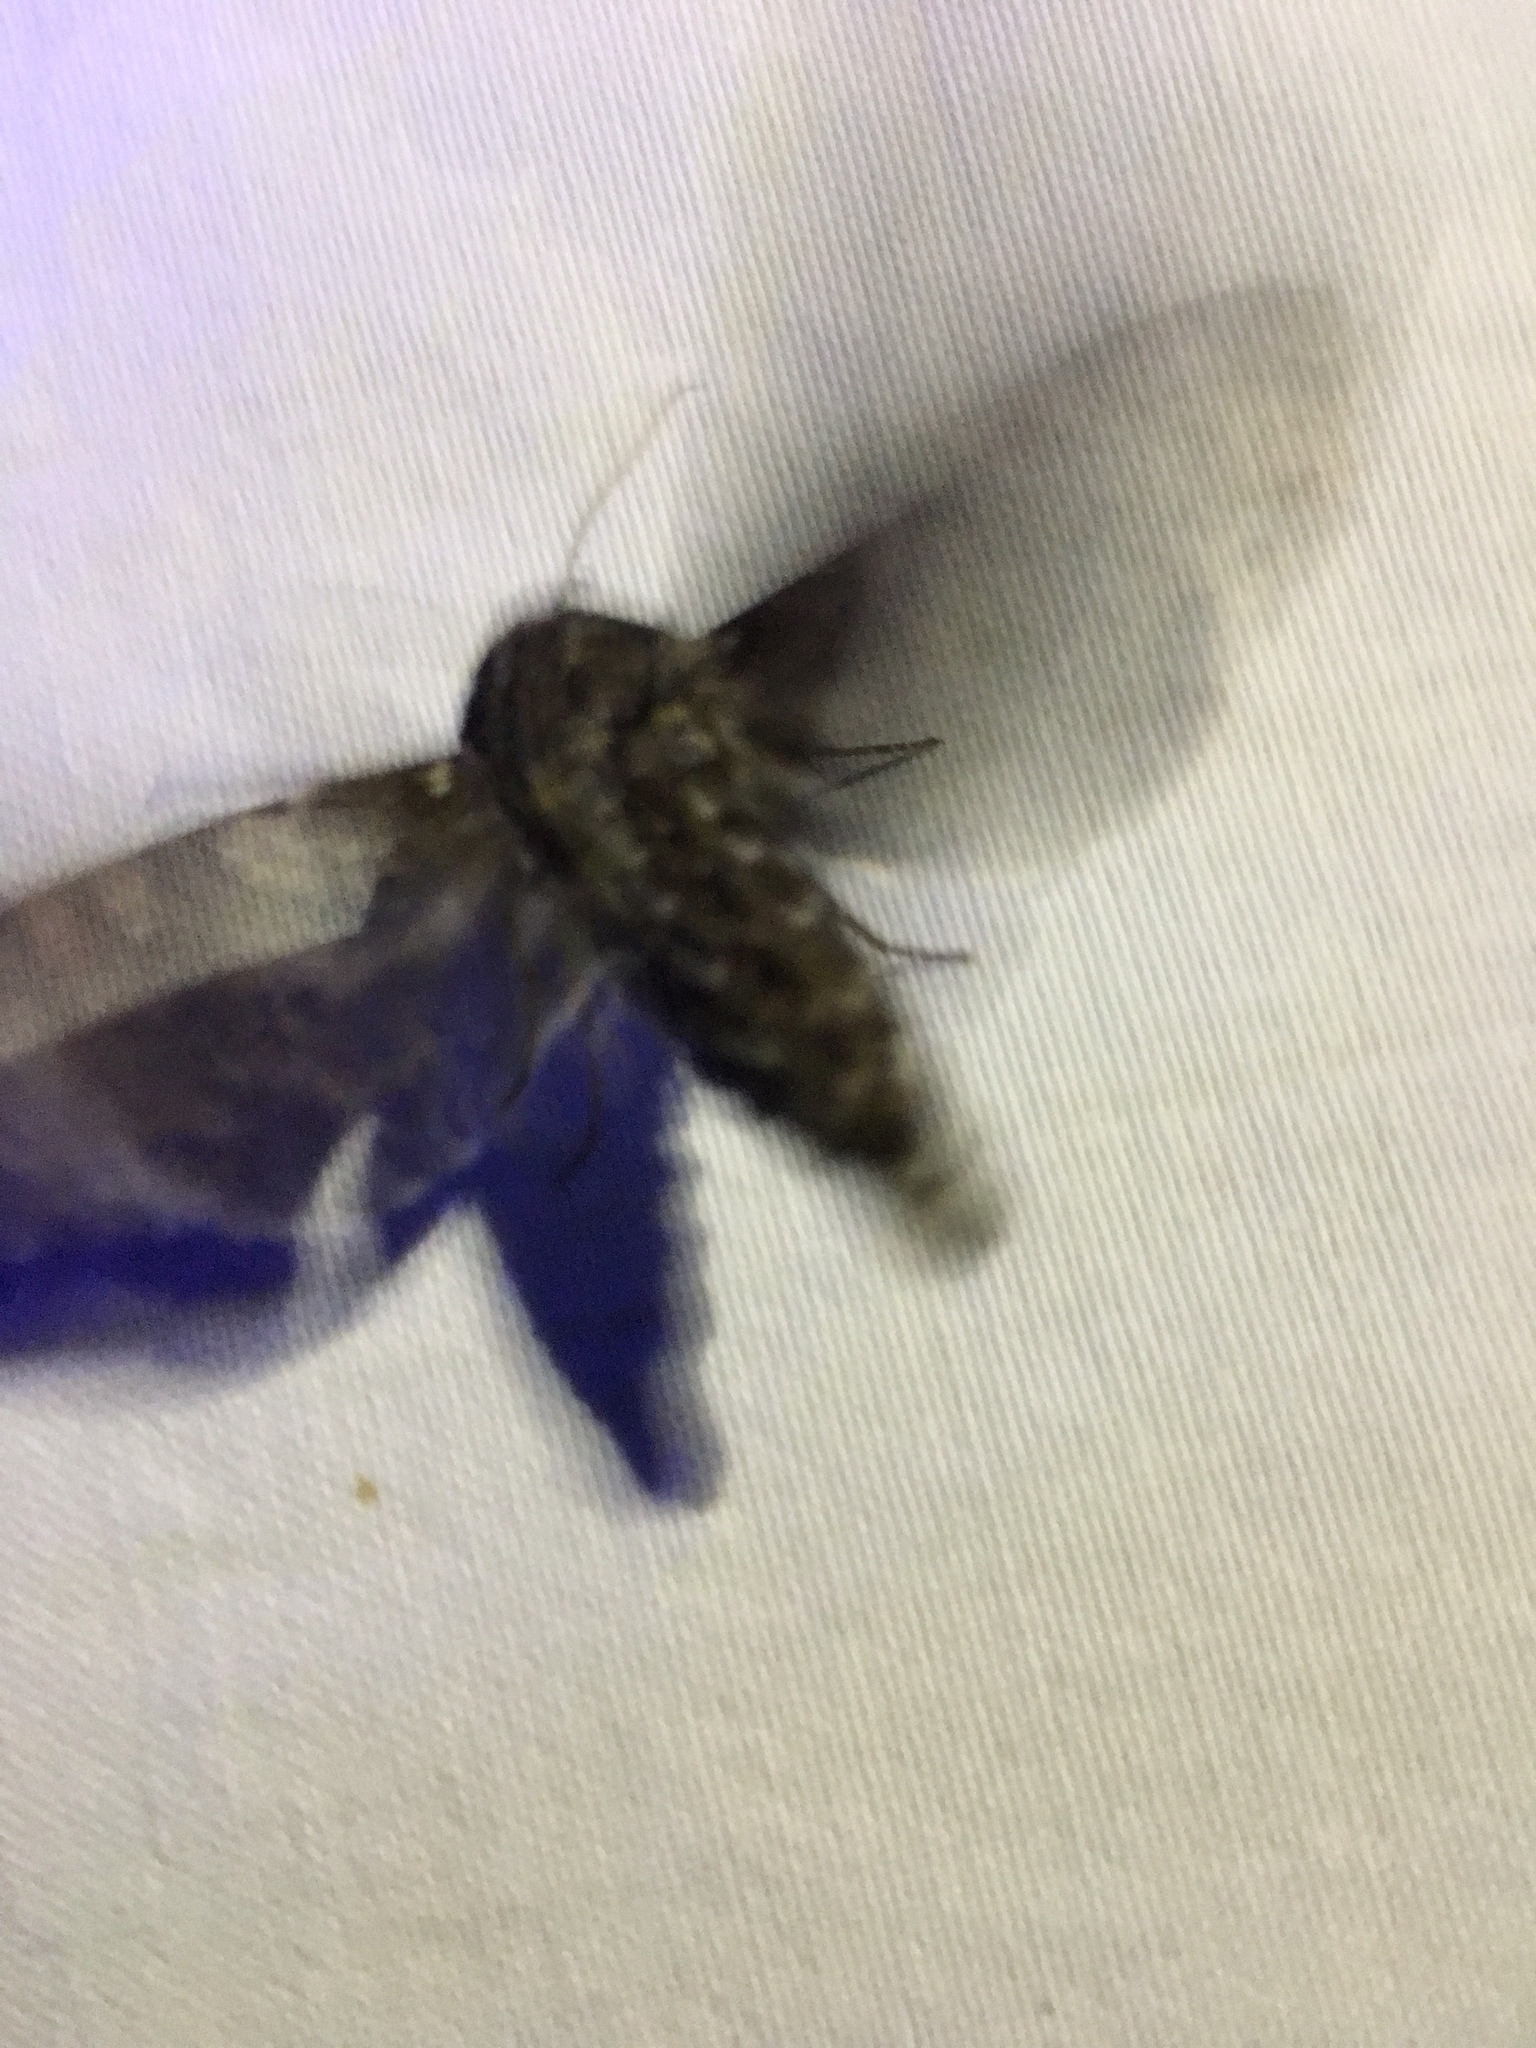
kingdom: Animalia
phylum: Arthropoda
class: Insecta
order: Lepidoptera
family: Sphingidae
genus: Dolba
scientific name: Dolba hyloeus
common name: Pawpaw sphinx
